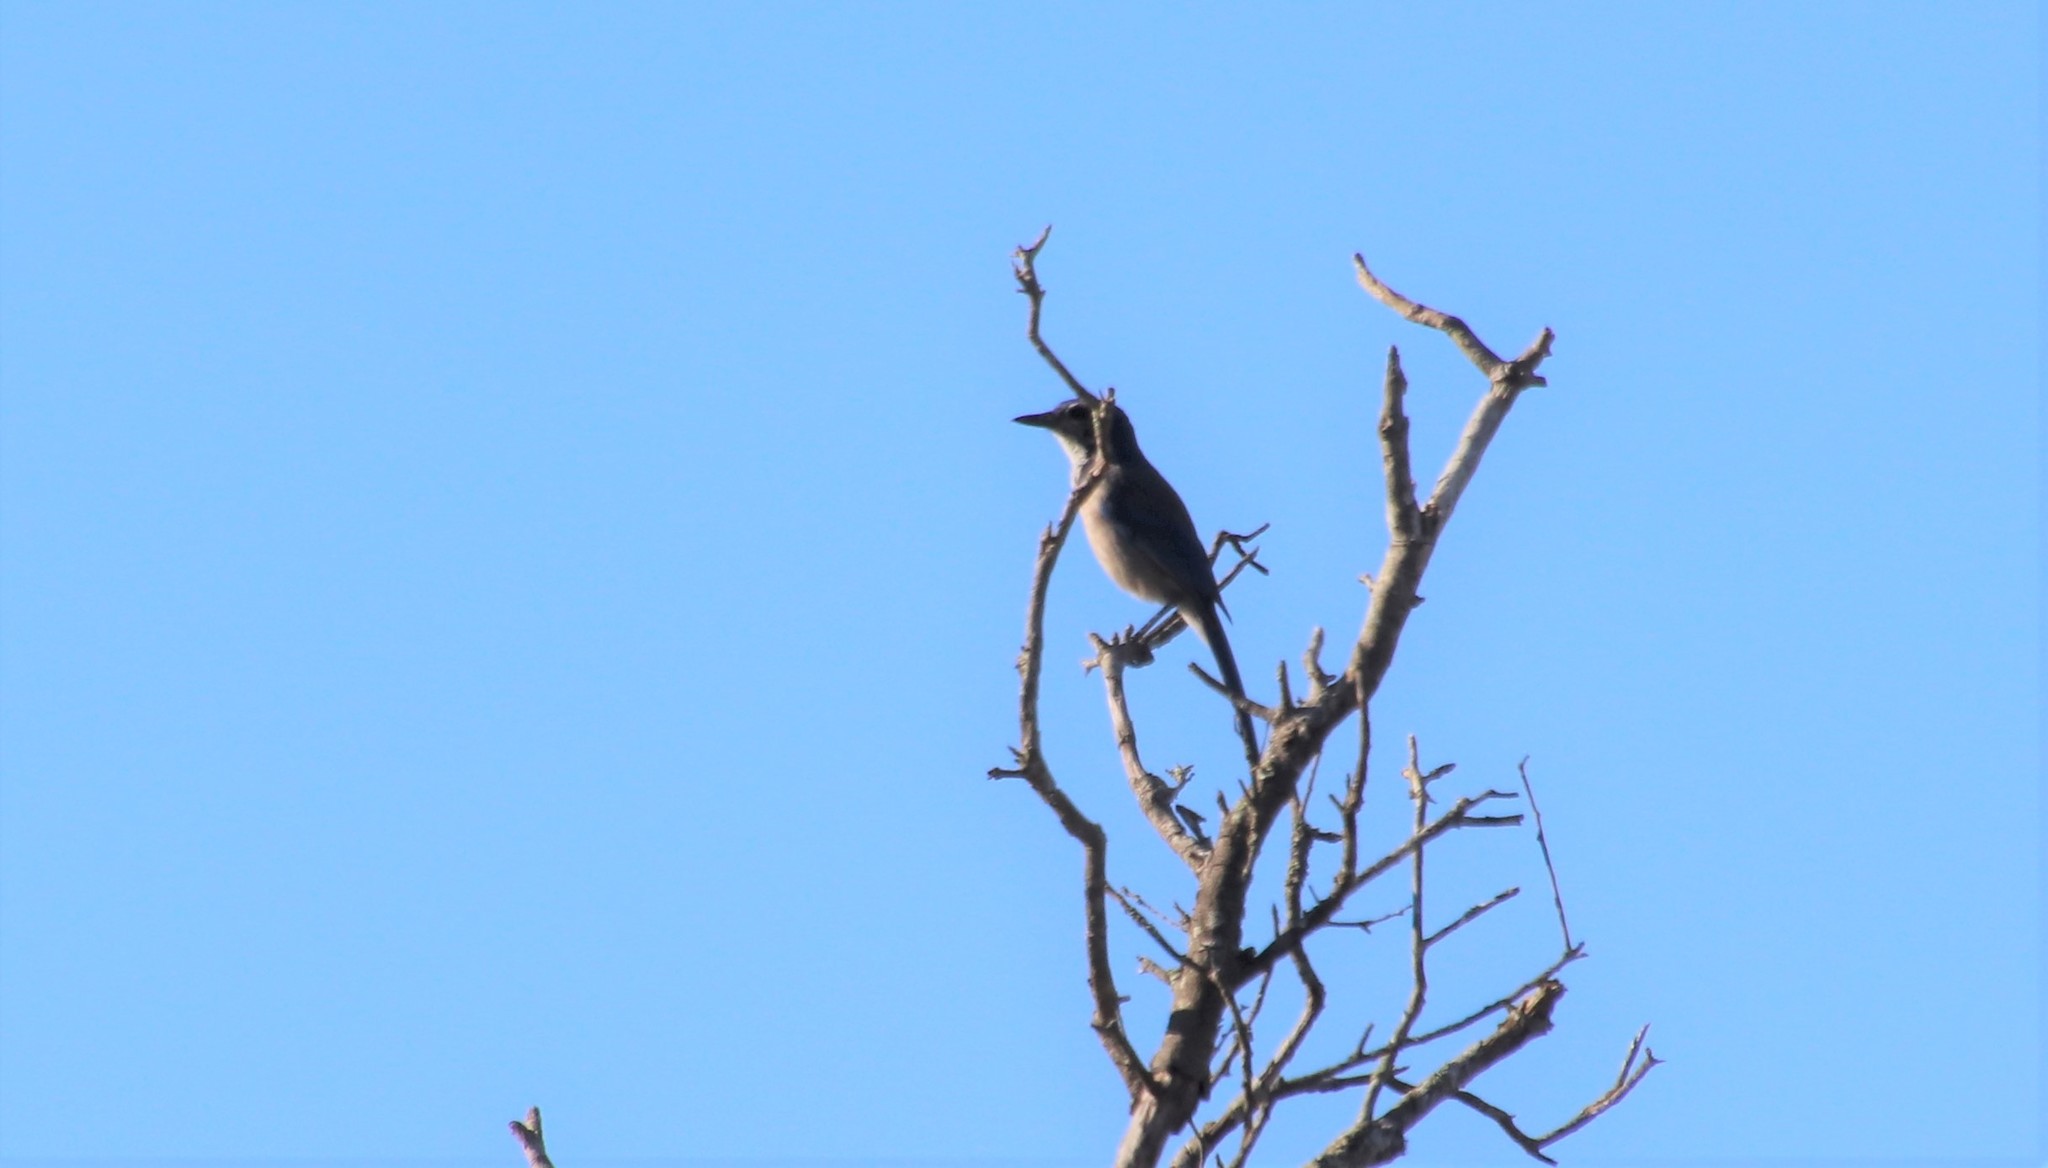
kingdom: Animalia
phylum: Chordata
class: Aves
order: Passeriformes
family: Corvidae
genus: Aphelocoma
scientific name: Aphelocoma californica
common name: California scrub-jay
